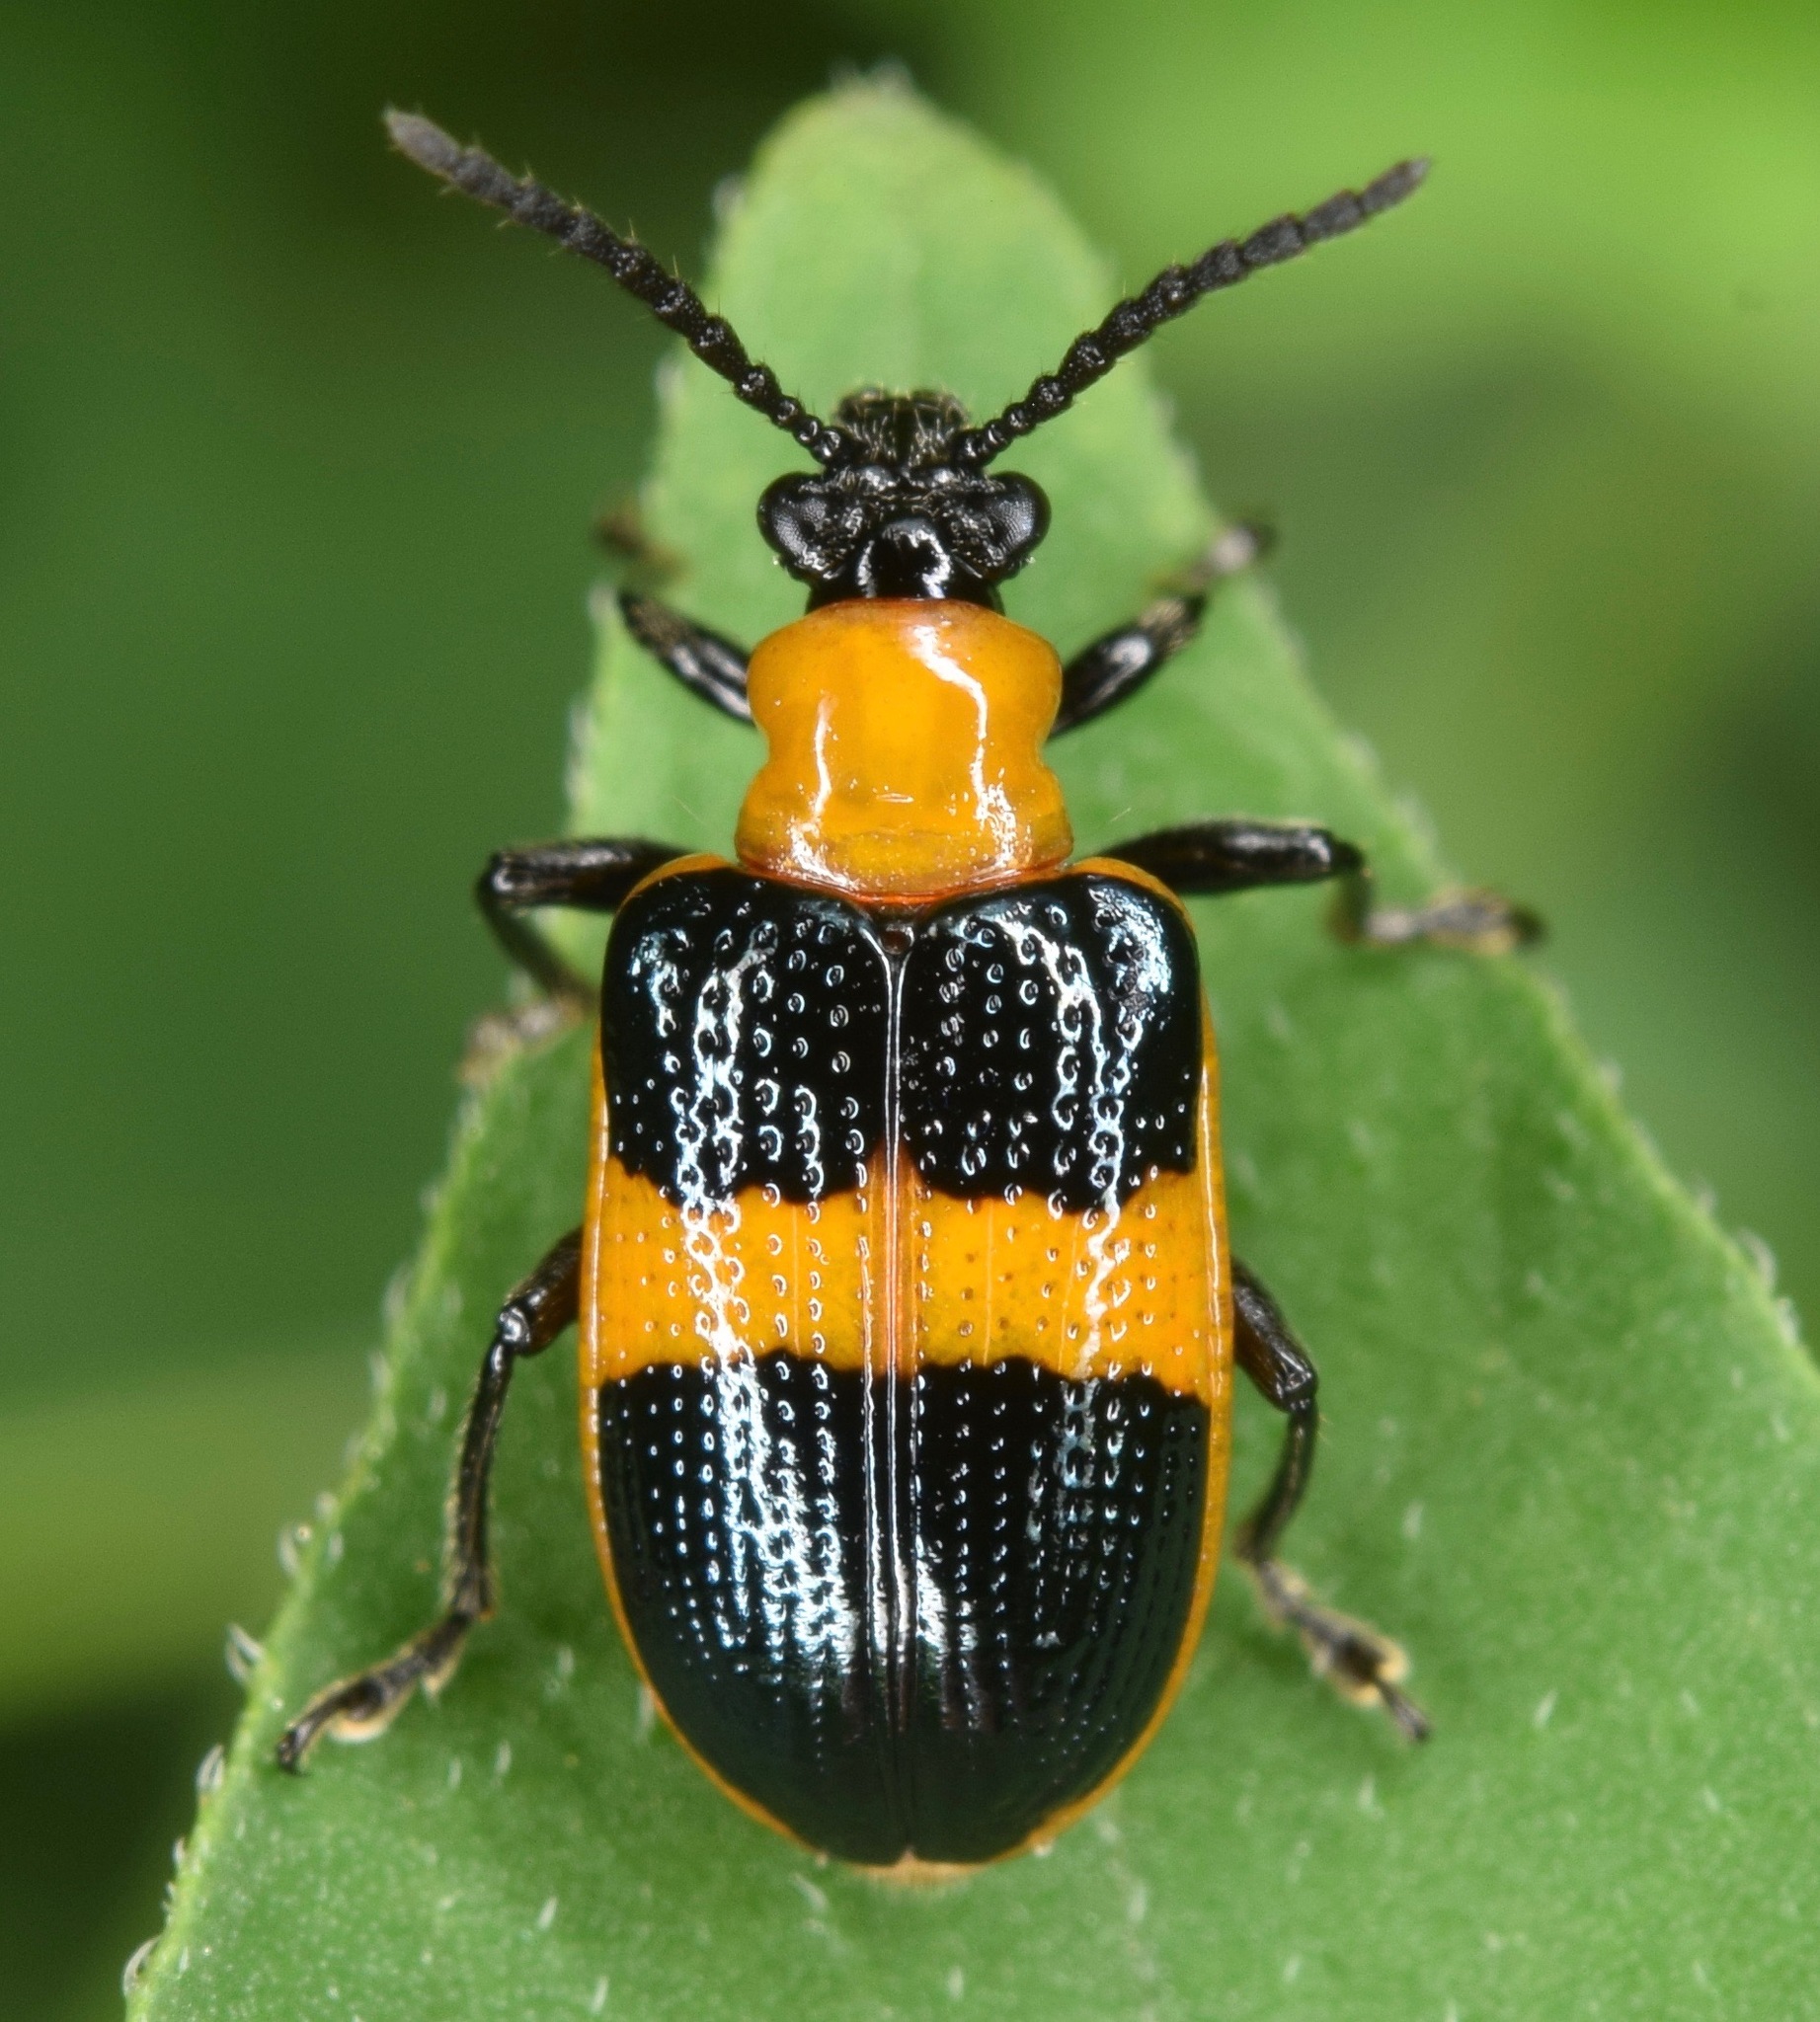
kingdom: Animalia
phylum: Arthropoda
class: Insecta
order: Coleoptera
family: Chrysomelidae
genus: Lema
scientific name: Lema solani
